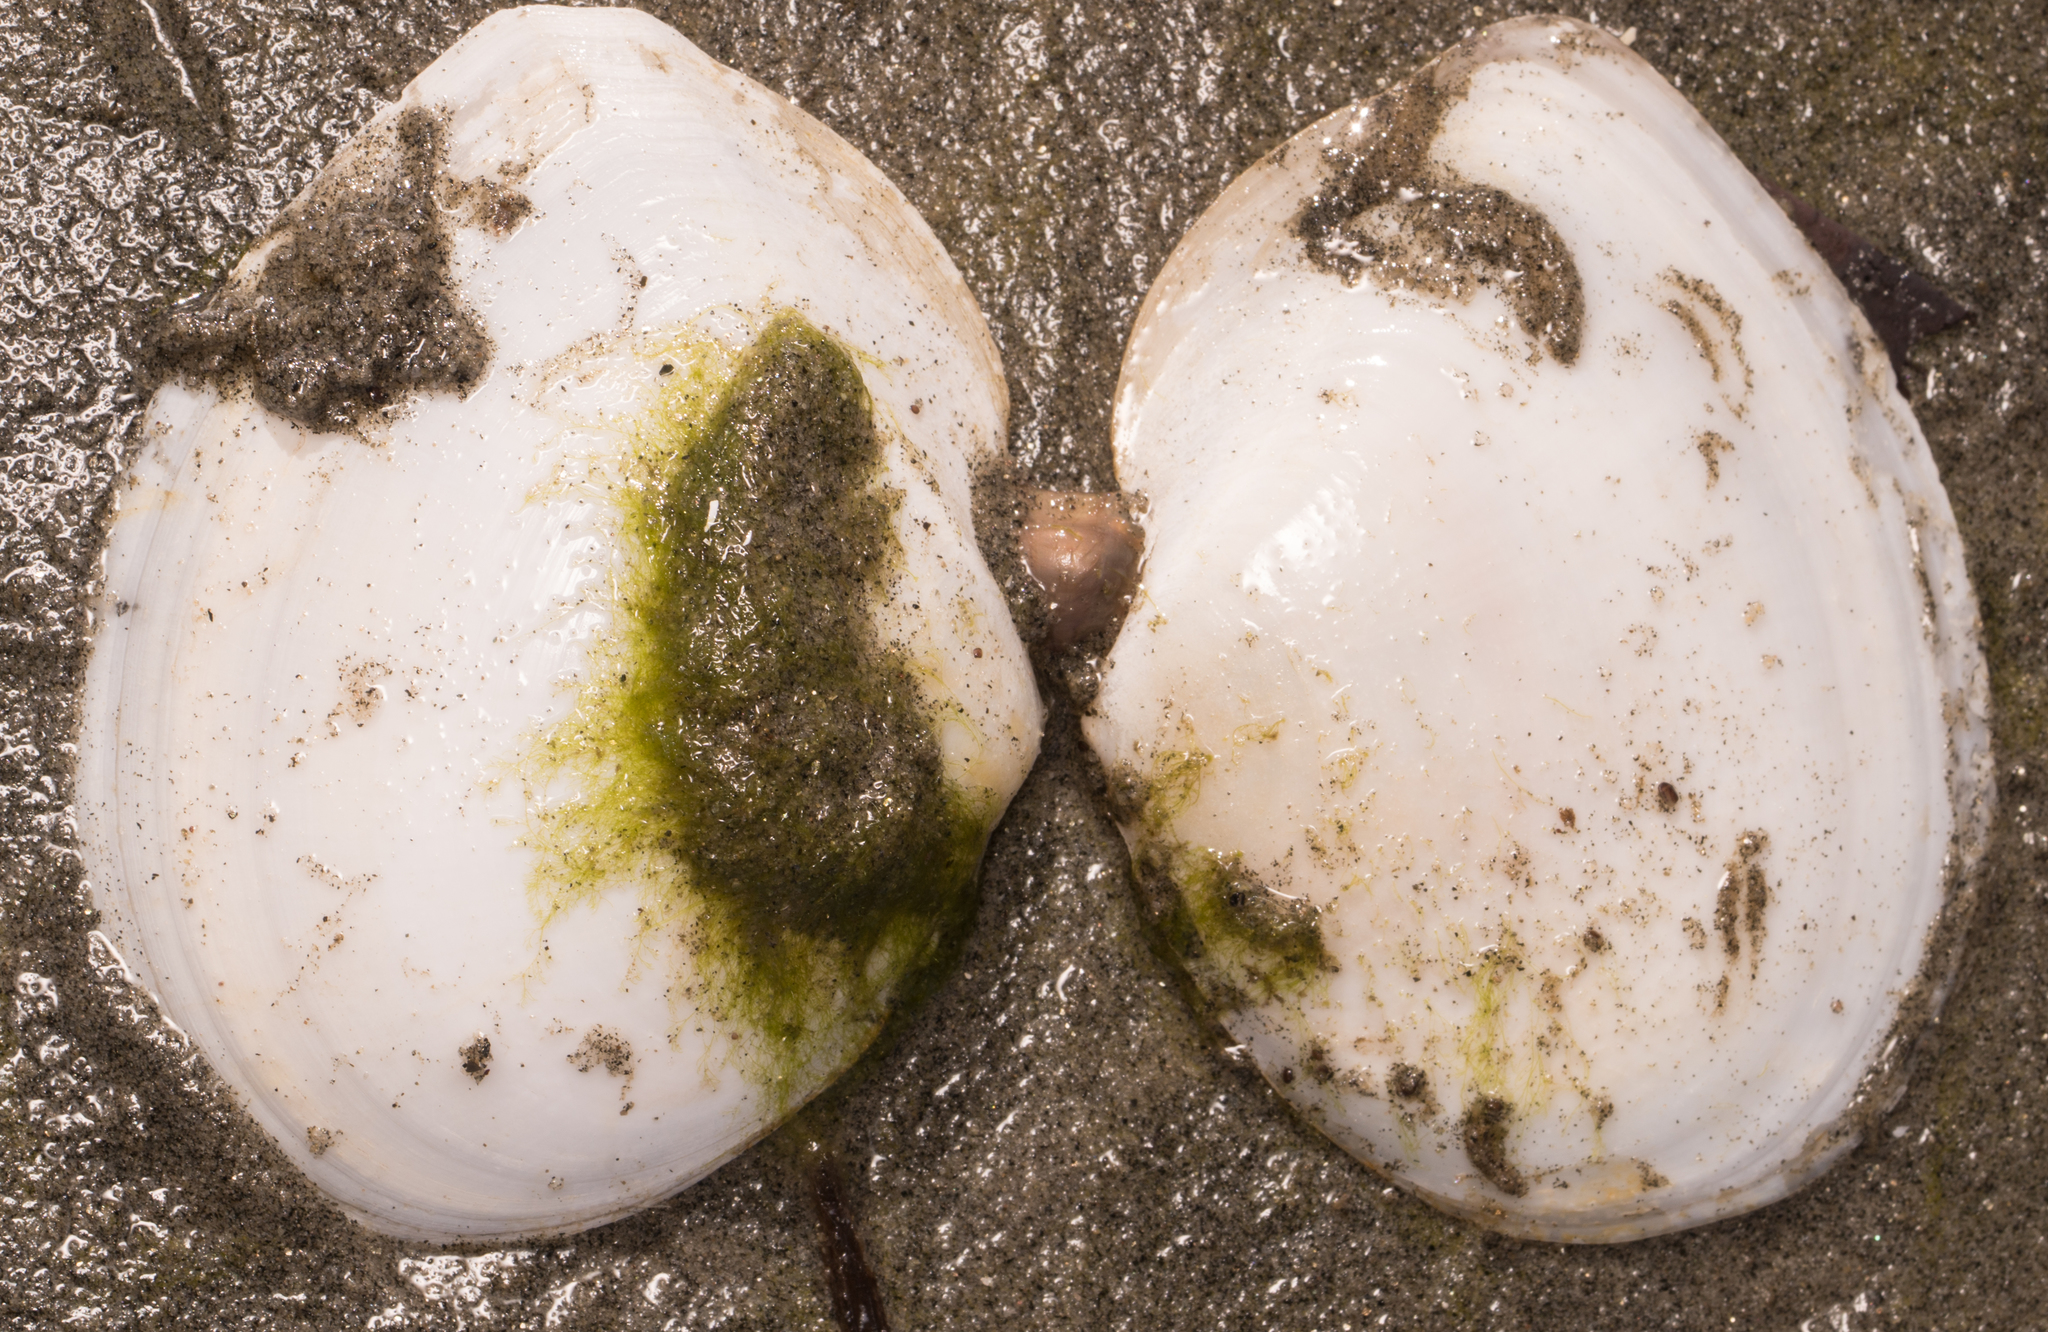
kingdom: Animalia
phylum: Mollusca
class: Bivalvia
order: Cardiida
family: Tellinidae
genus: Rexithaerus
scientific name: Rexithaerus secta
